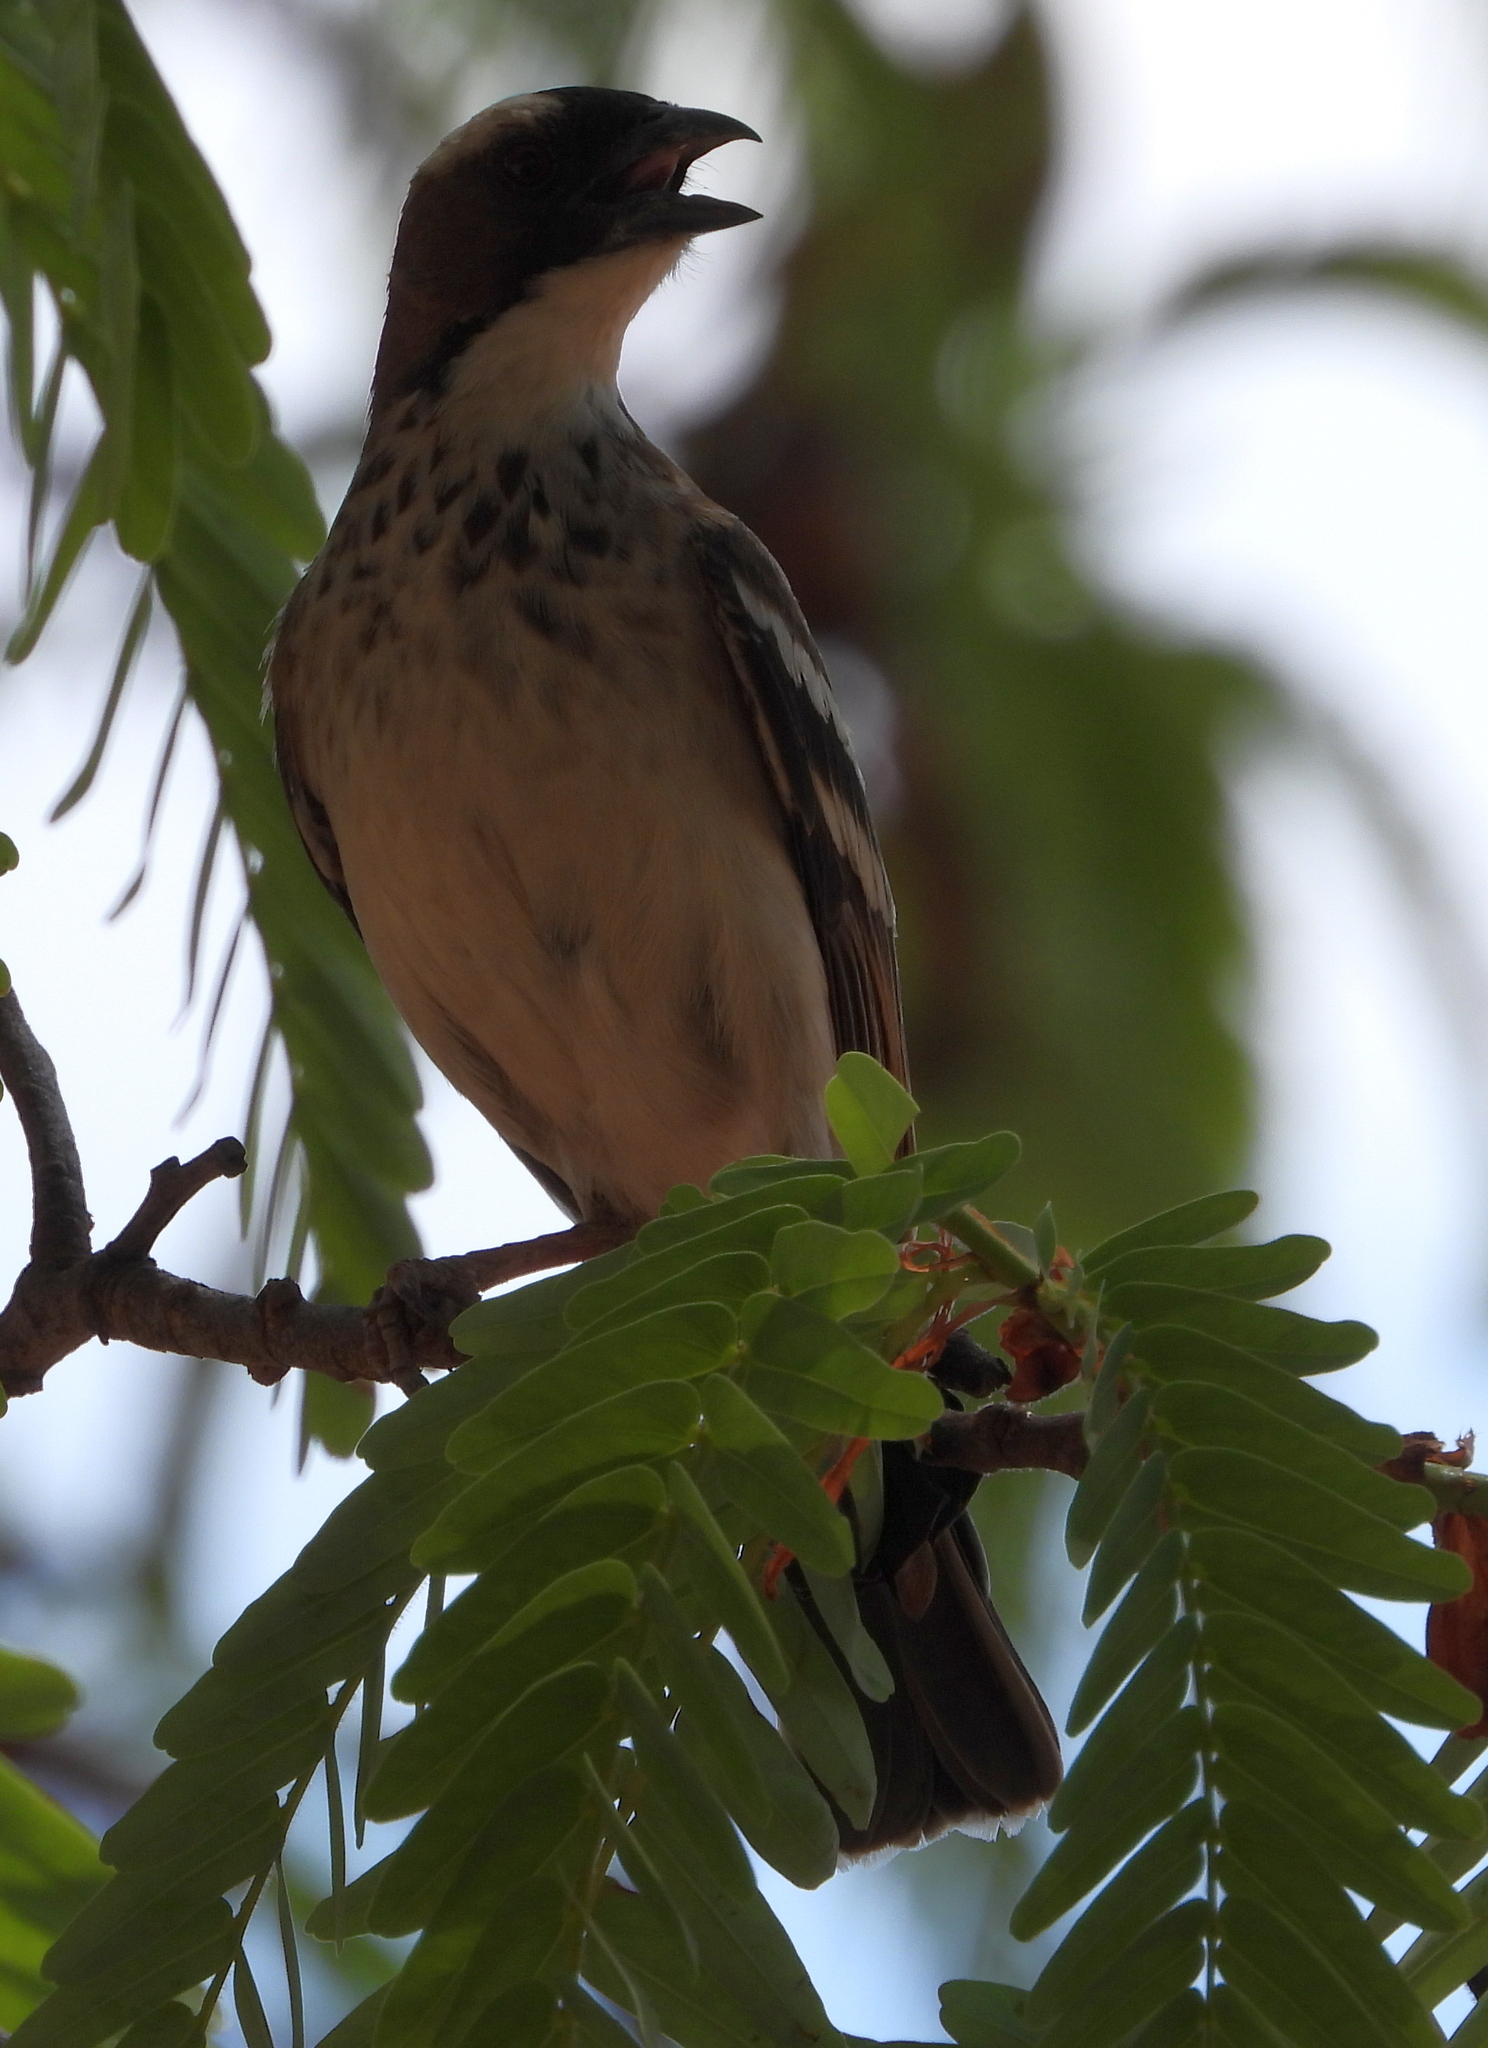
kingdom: Animalia
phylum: Chordata
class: Aves
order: Passeriformes
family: Passeridae
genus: Plocepasser
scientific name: Plocepasser mahali
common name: White-browed sparrow-weaver
